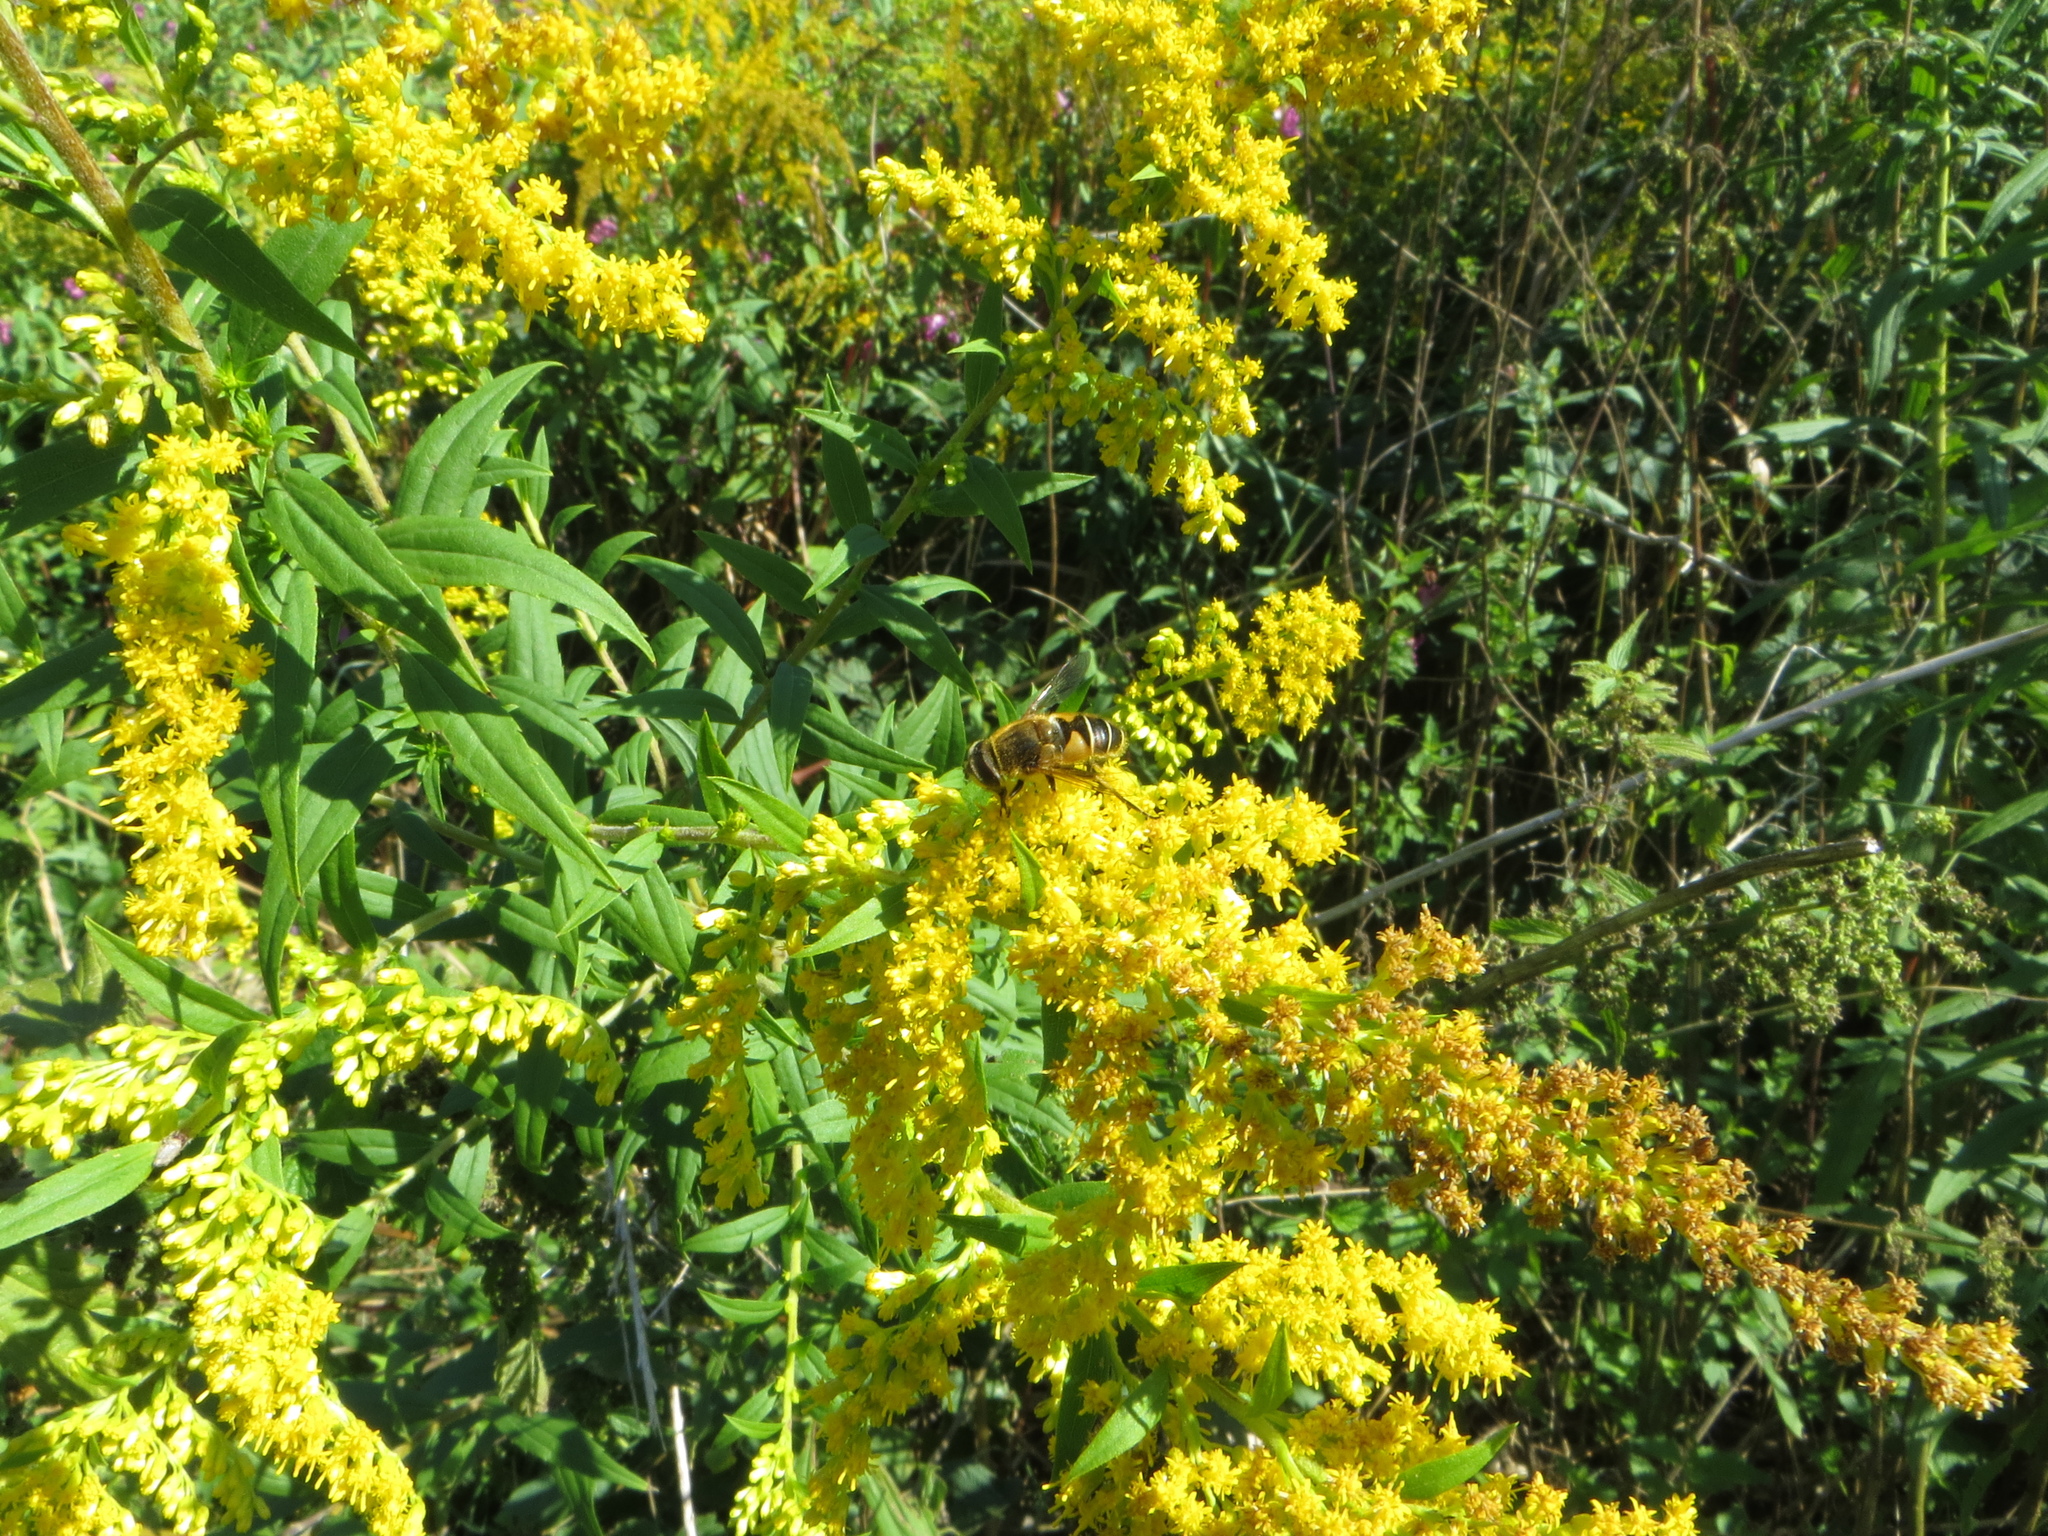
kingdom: Animalia
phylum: Arthropoda
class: Insecta
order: Diptera
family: Syrphidae
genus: Eristalis
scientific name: Eristalis nemorum
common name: Orange-spined drone fly
